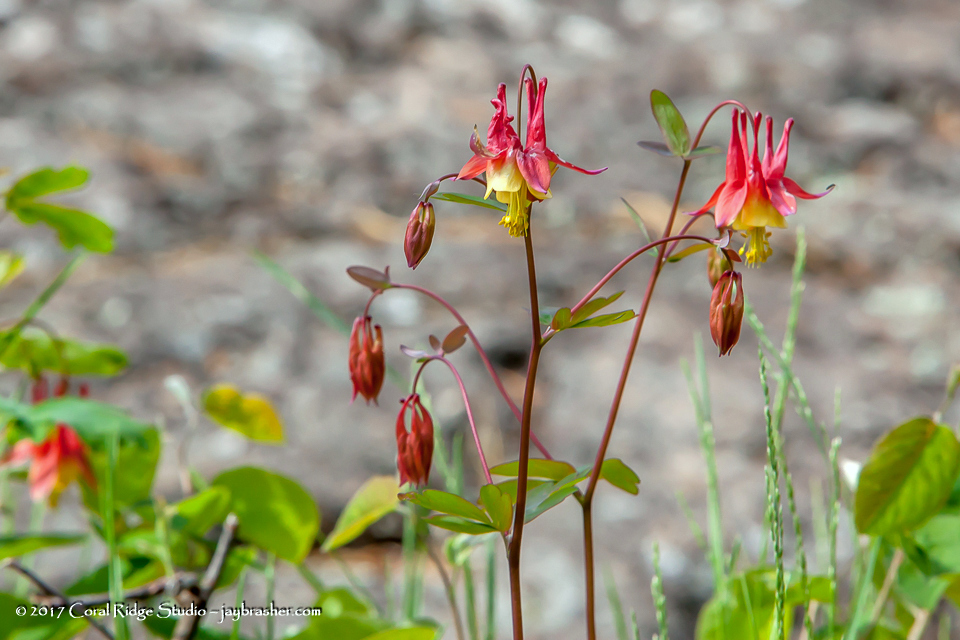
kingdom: Plantae
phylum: Tracheophyta
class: Magnoliopsida
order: Ranunculales
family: Ranunculaceae
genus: Aquilegia
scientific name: Aquilegia canadensis
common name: American columbine
